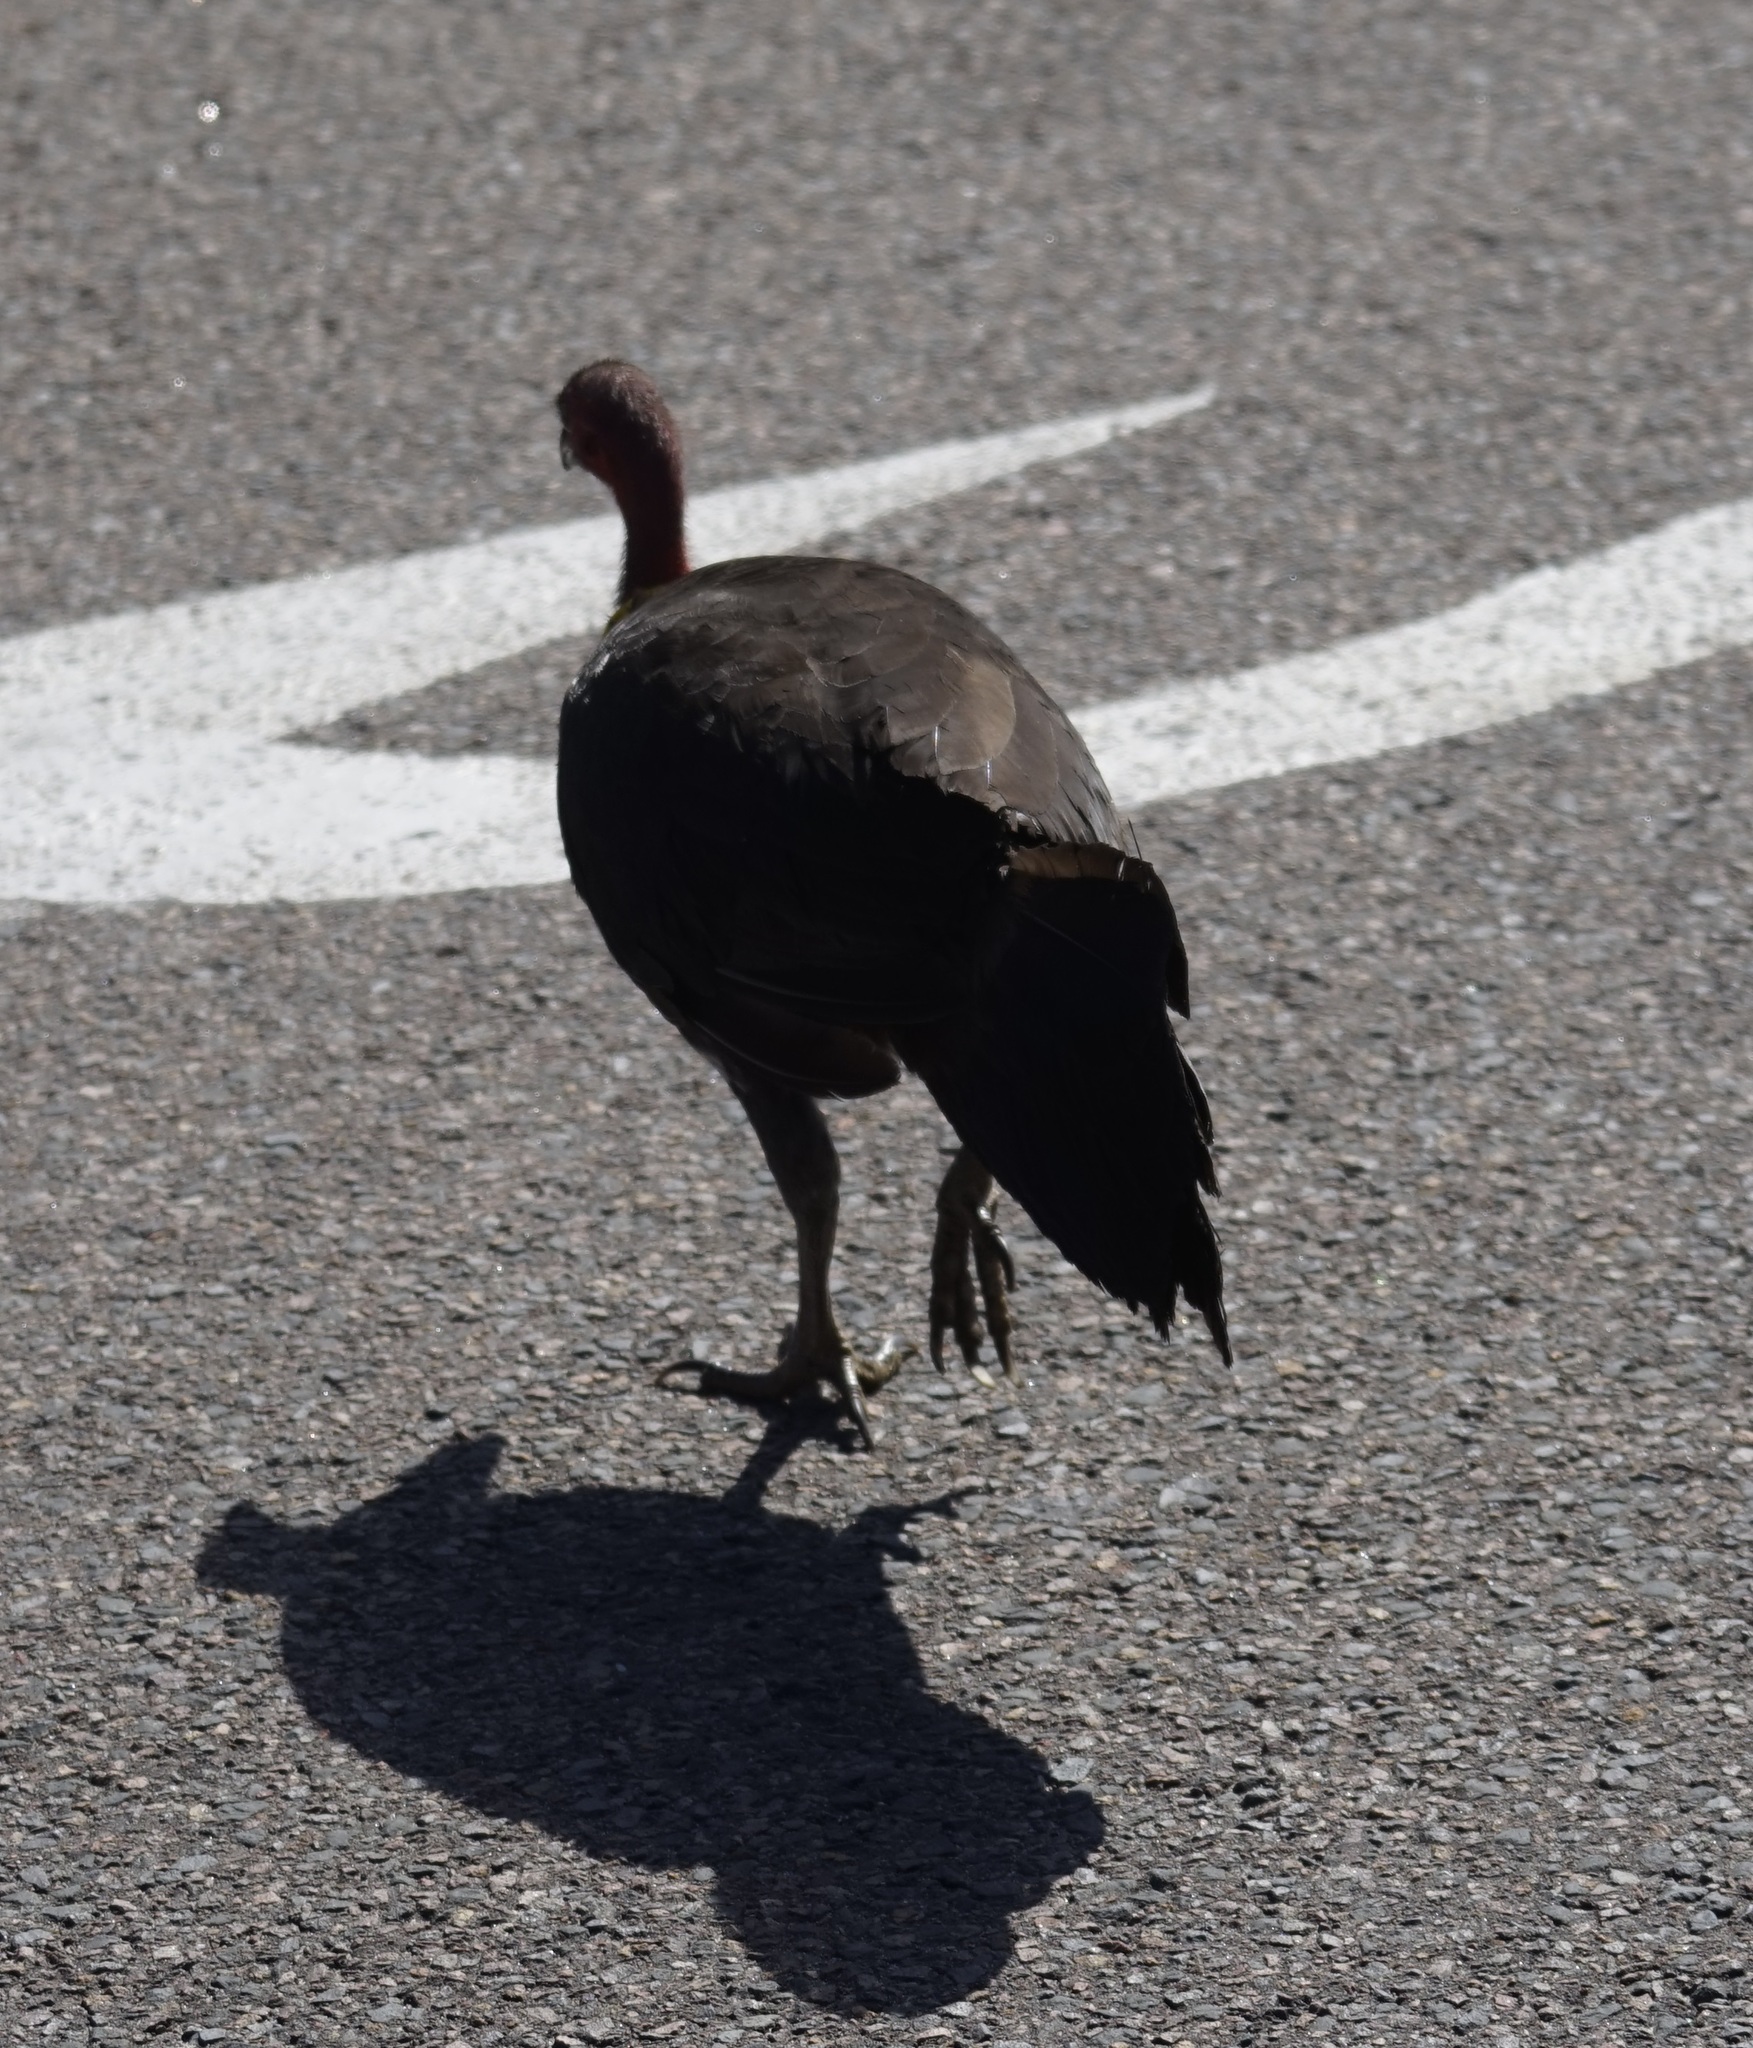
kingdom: Animalia
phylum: Chordata
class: Aves
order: Galliformes
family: Megapodiidae
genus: Alectura
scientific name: Alectura lathami
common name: Australian brushturkey
